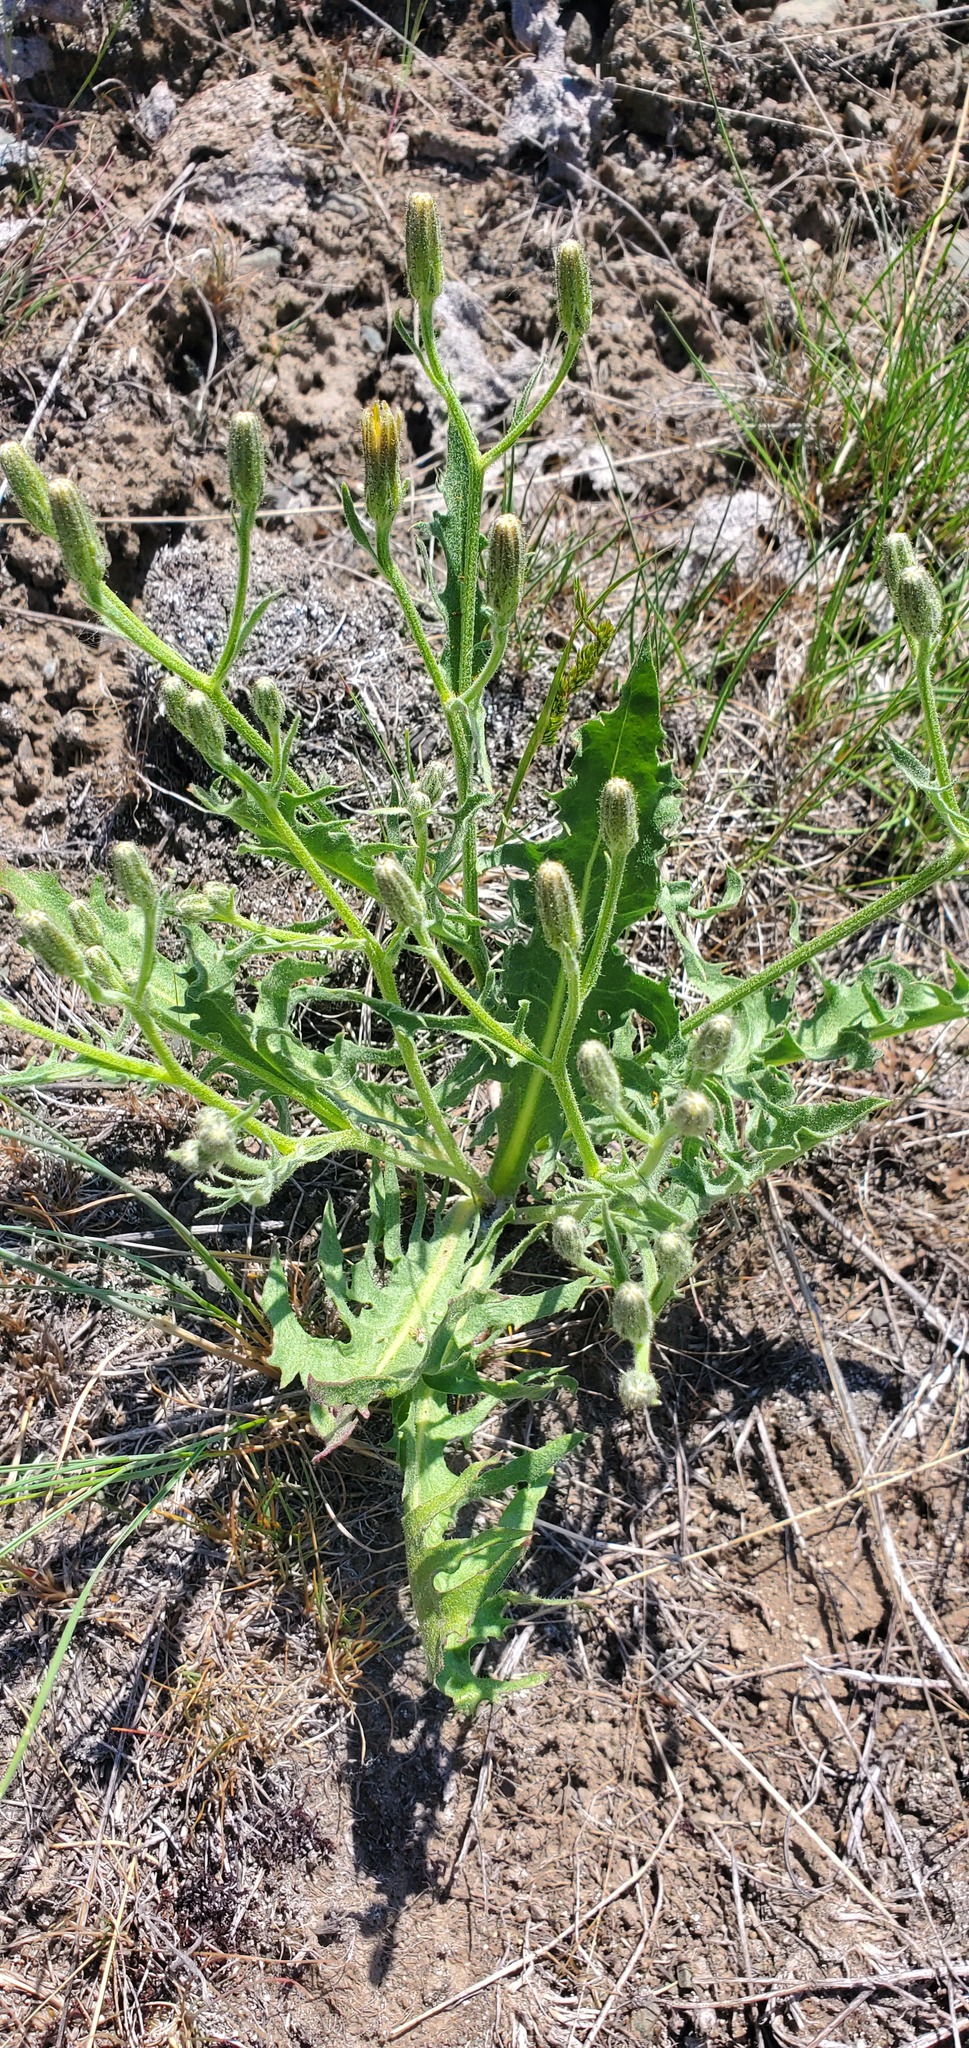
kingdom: Plantae
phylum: Tracheophyta
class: Magnoliopsida
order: Asterales
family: Asteraceae
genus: Crepis
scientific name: Crepis occidentalis
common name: Gray hawk's-beard
